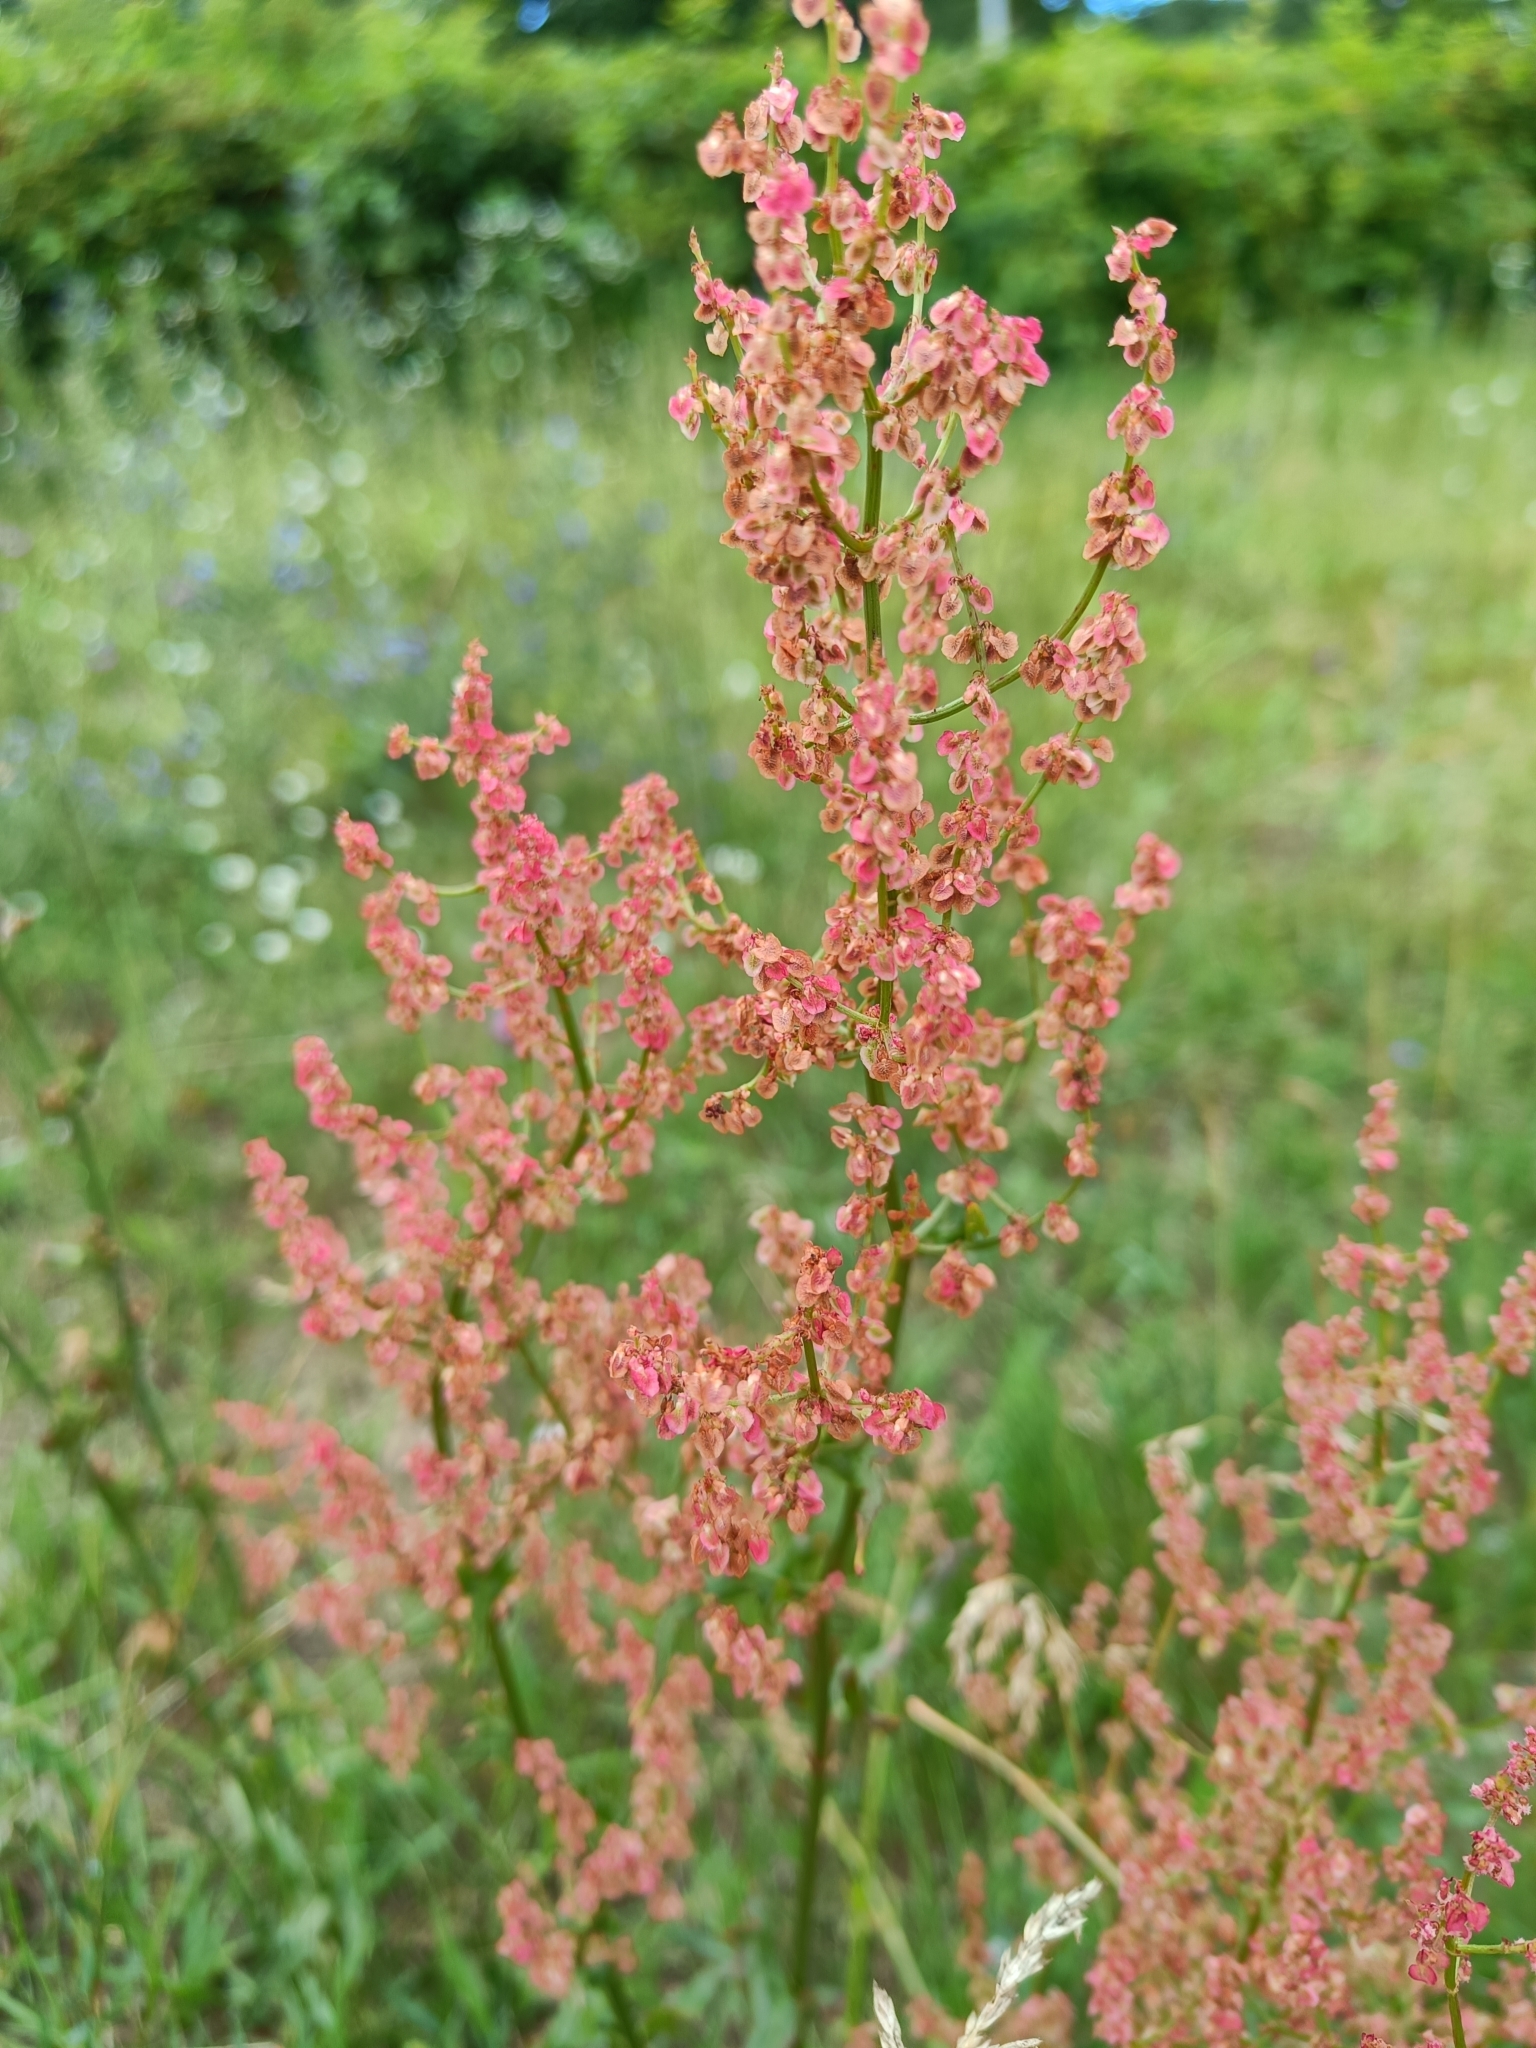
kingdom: Plantae
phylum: Tracheophyta
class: Magnoliopsida
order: Caryophyllales
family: Polygonaceae
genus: Rumex
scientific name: Rumex thyrsiflorus
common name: Garden sorrel
